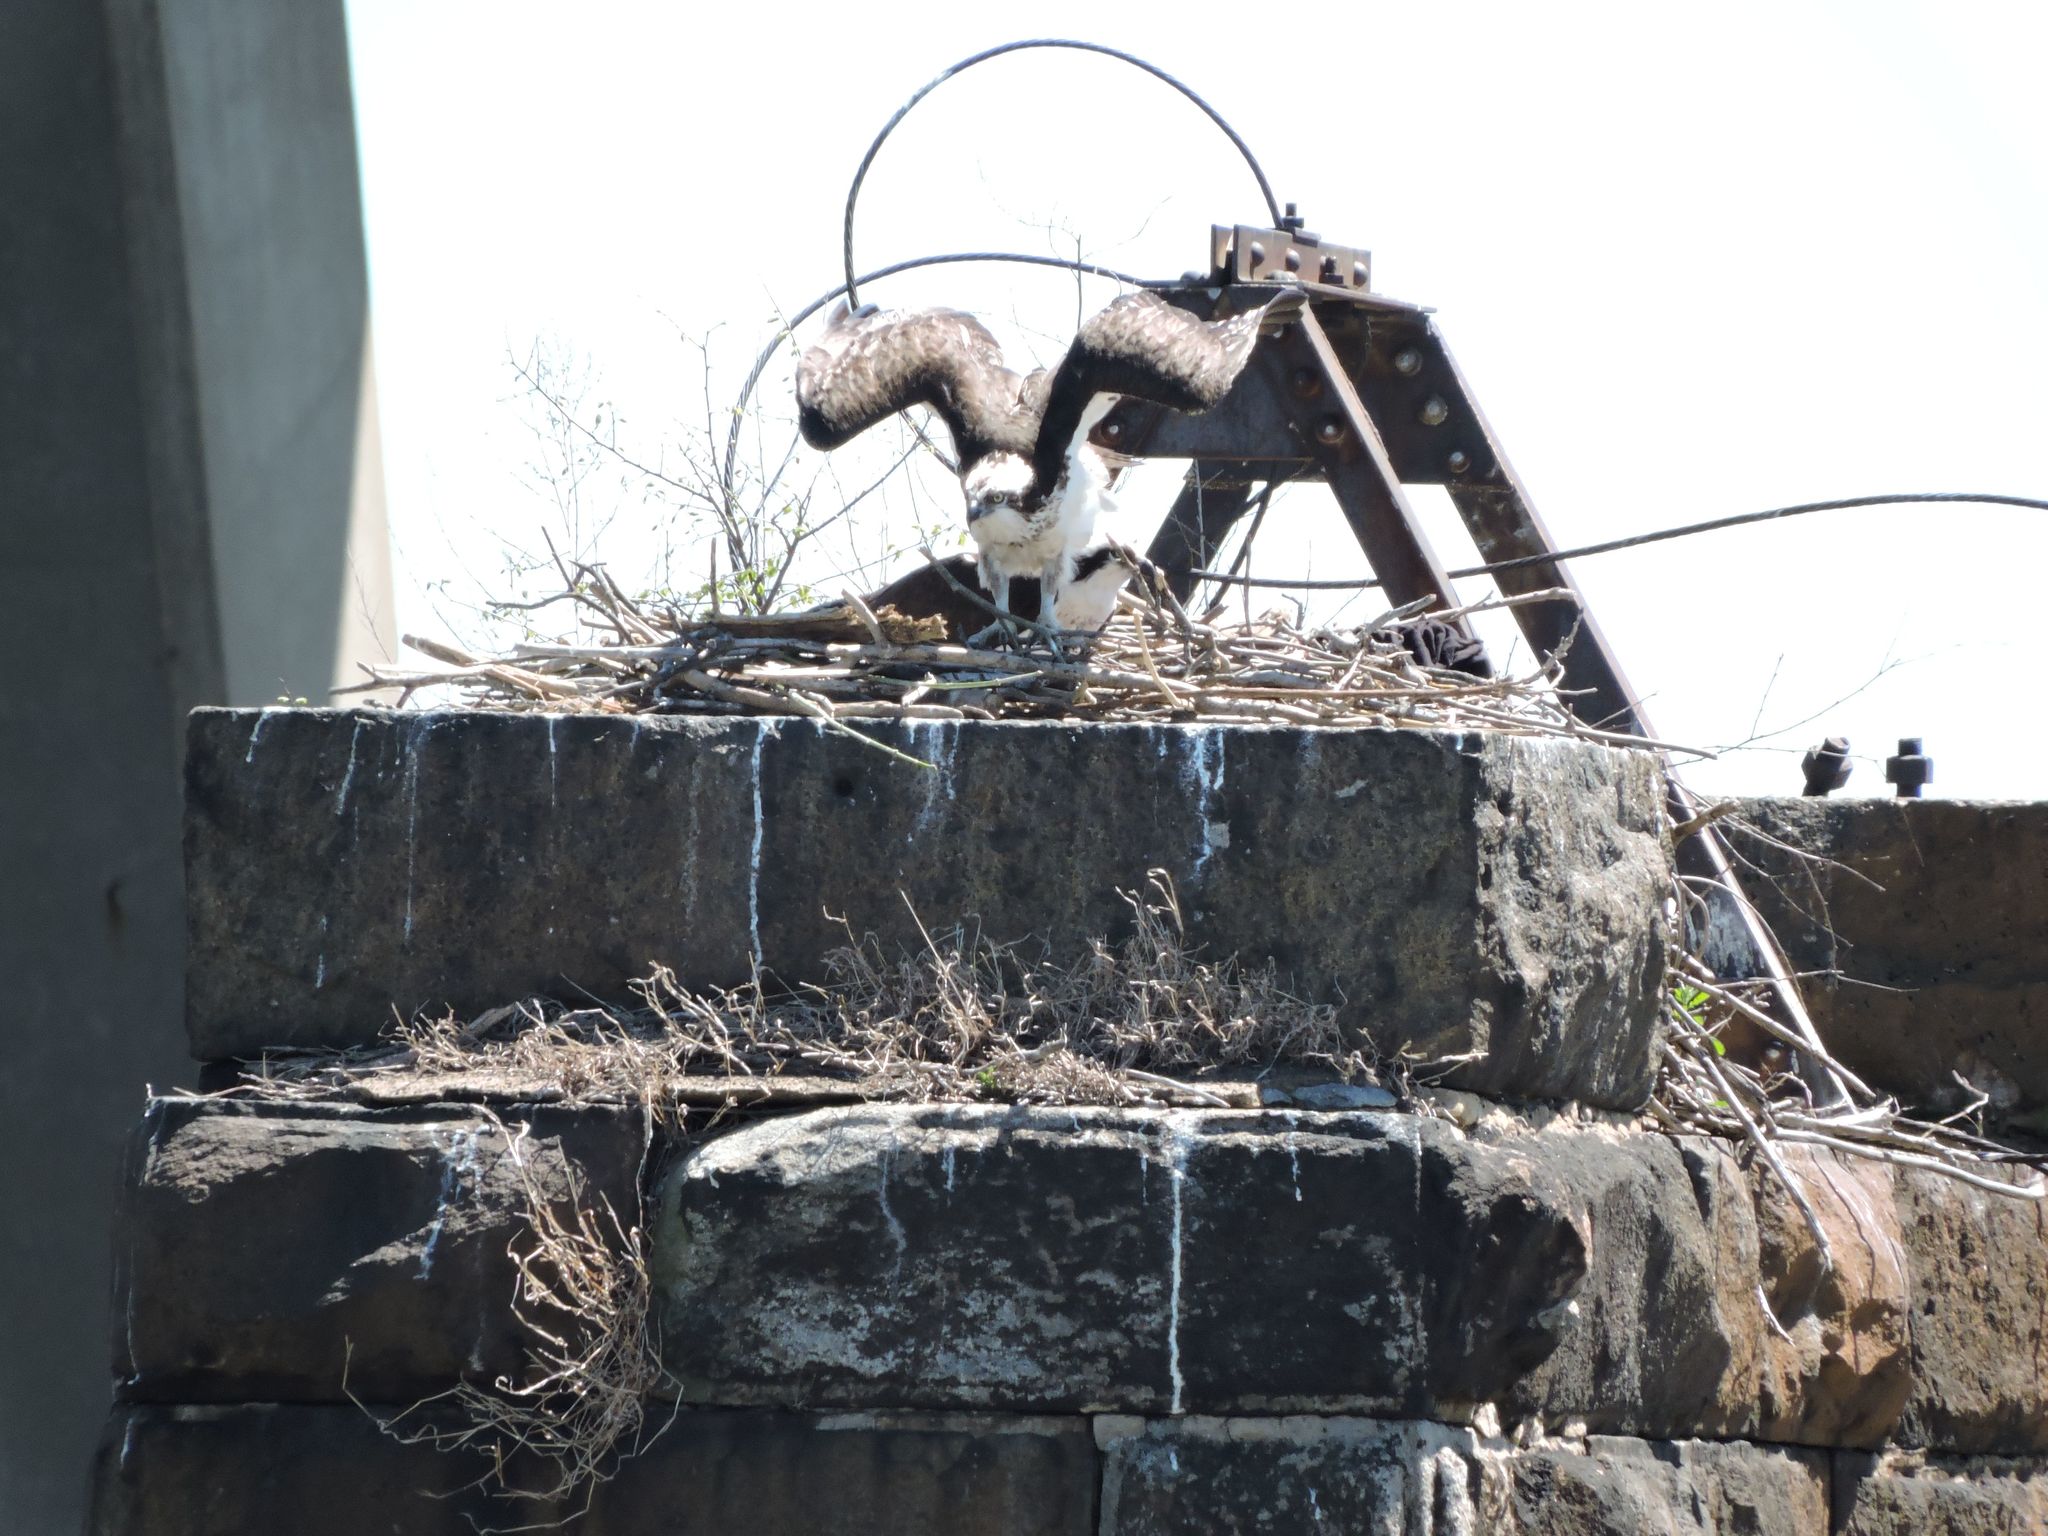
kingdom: Animalia
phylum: Chordata
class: Aves
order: Accipitriformes
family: Pandionidae
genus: Pandion
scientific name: Pandion haliaetus
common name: Osprey
